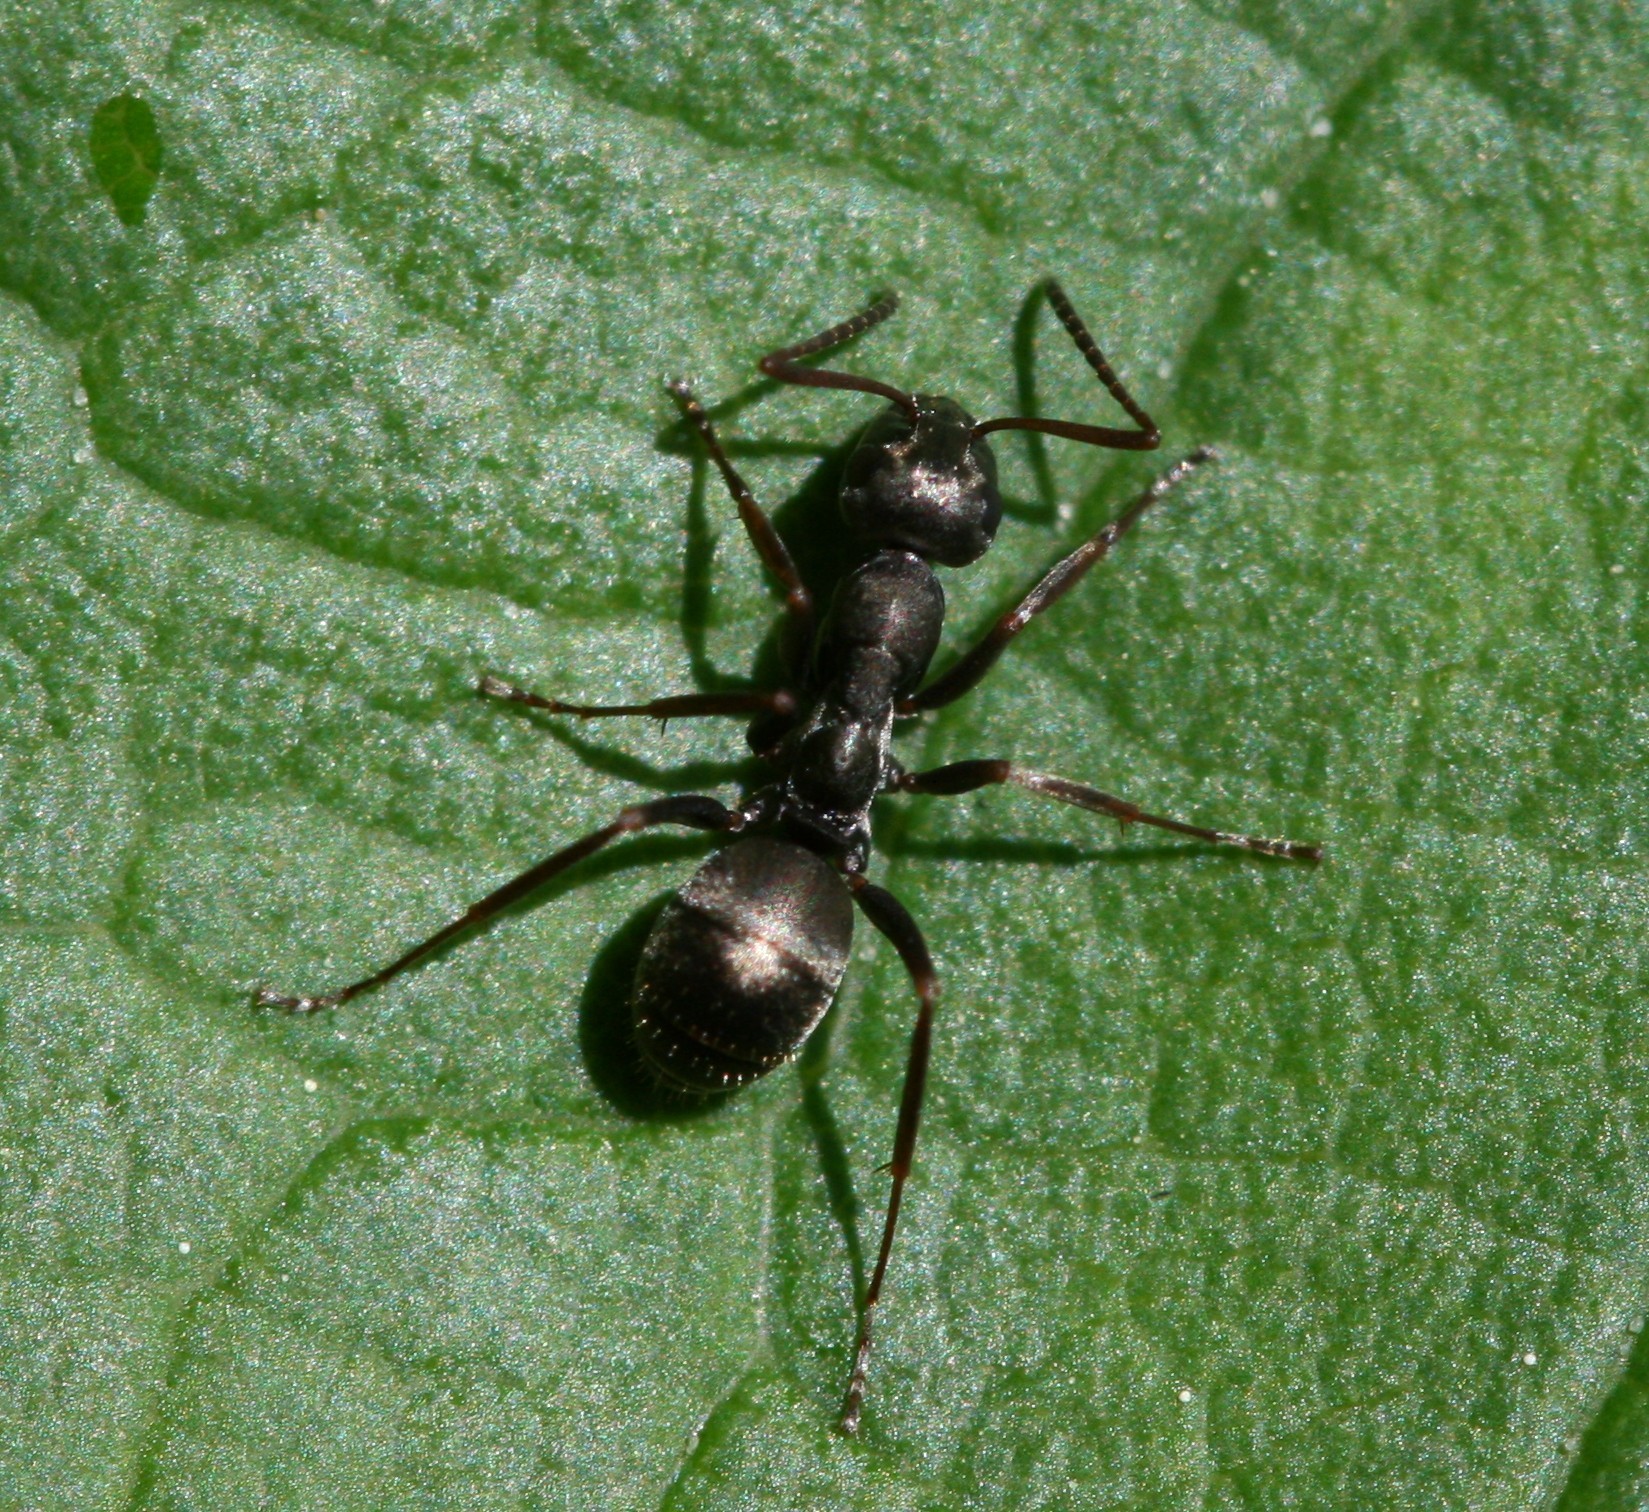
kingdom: Animalia
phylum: Arthropoda
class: Insecta
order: Hymenoptera
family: Formicidae
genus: Formica
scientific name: Formica lemani
